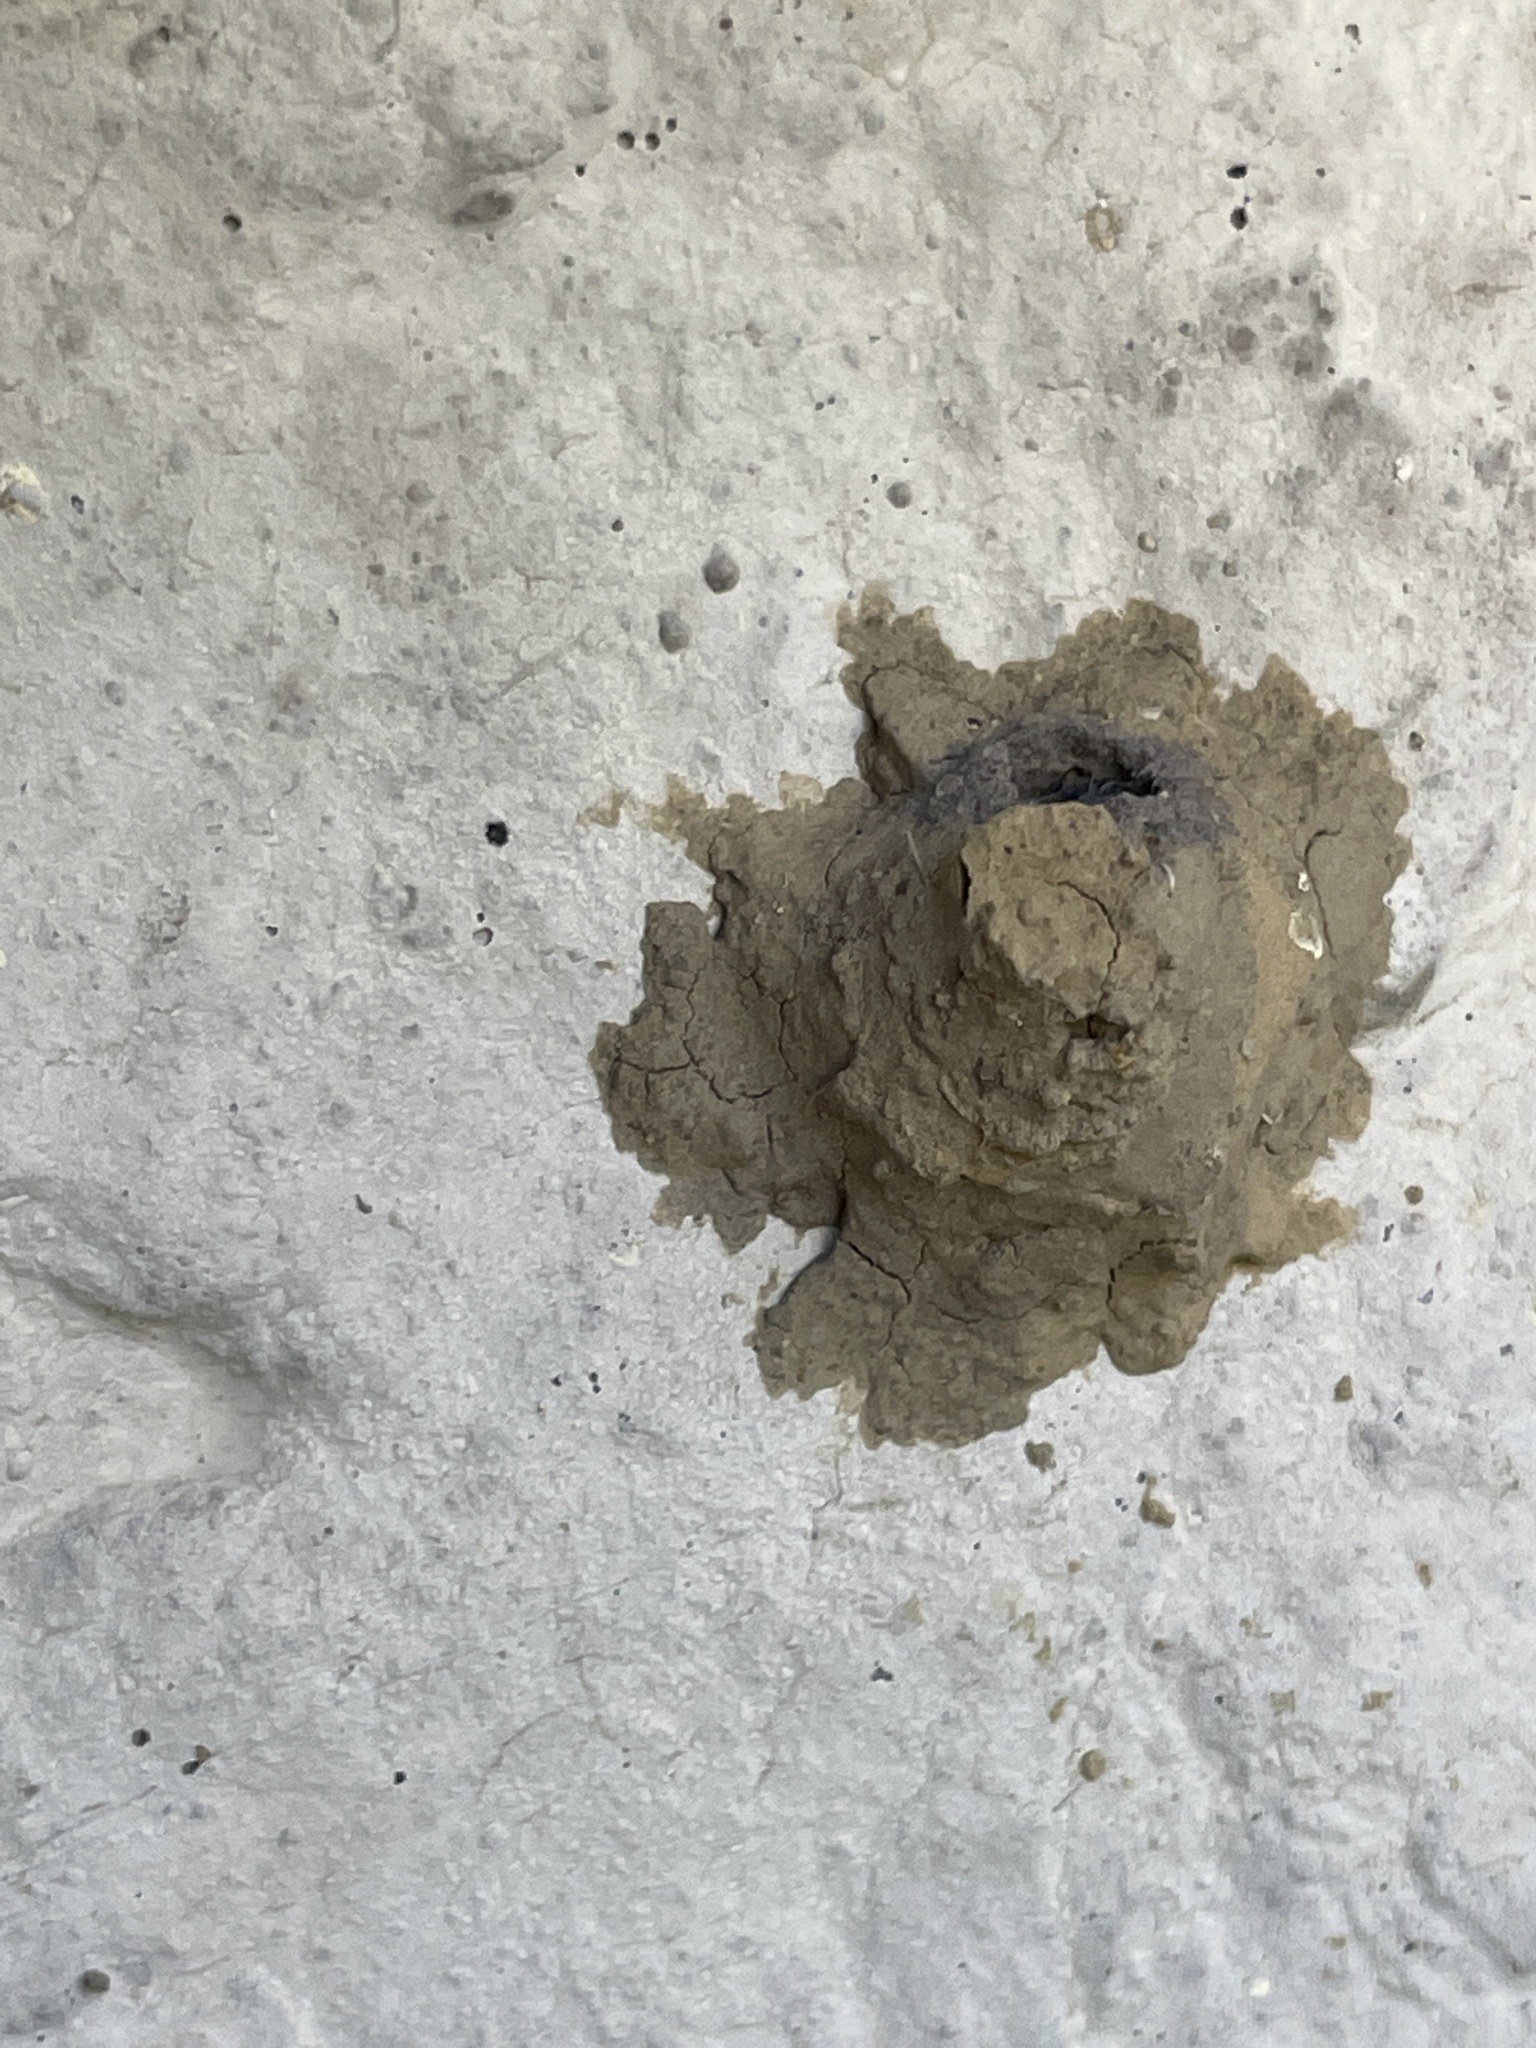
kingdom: Animalia
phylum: Arthropoda
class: Insecta
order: Hymenoptera
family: Vespidae
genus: Eumenes
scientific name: Eumenes
